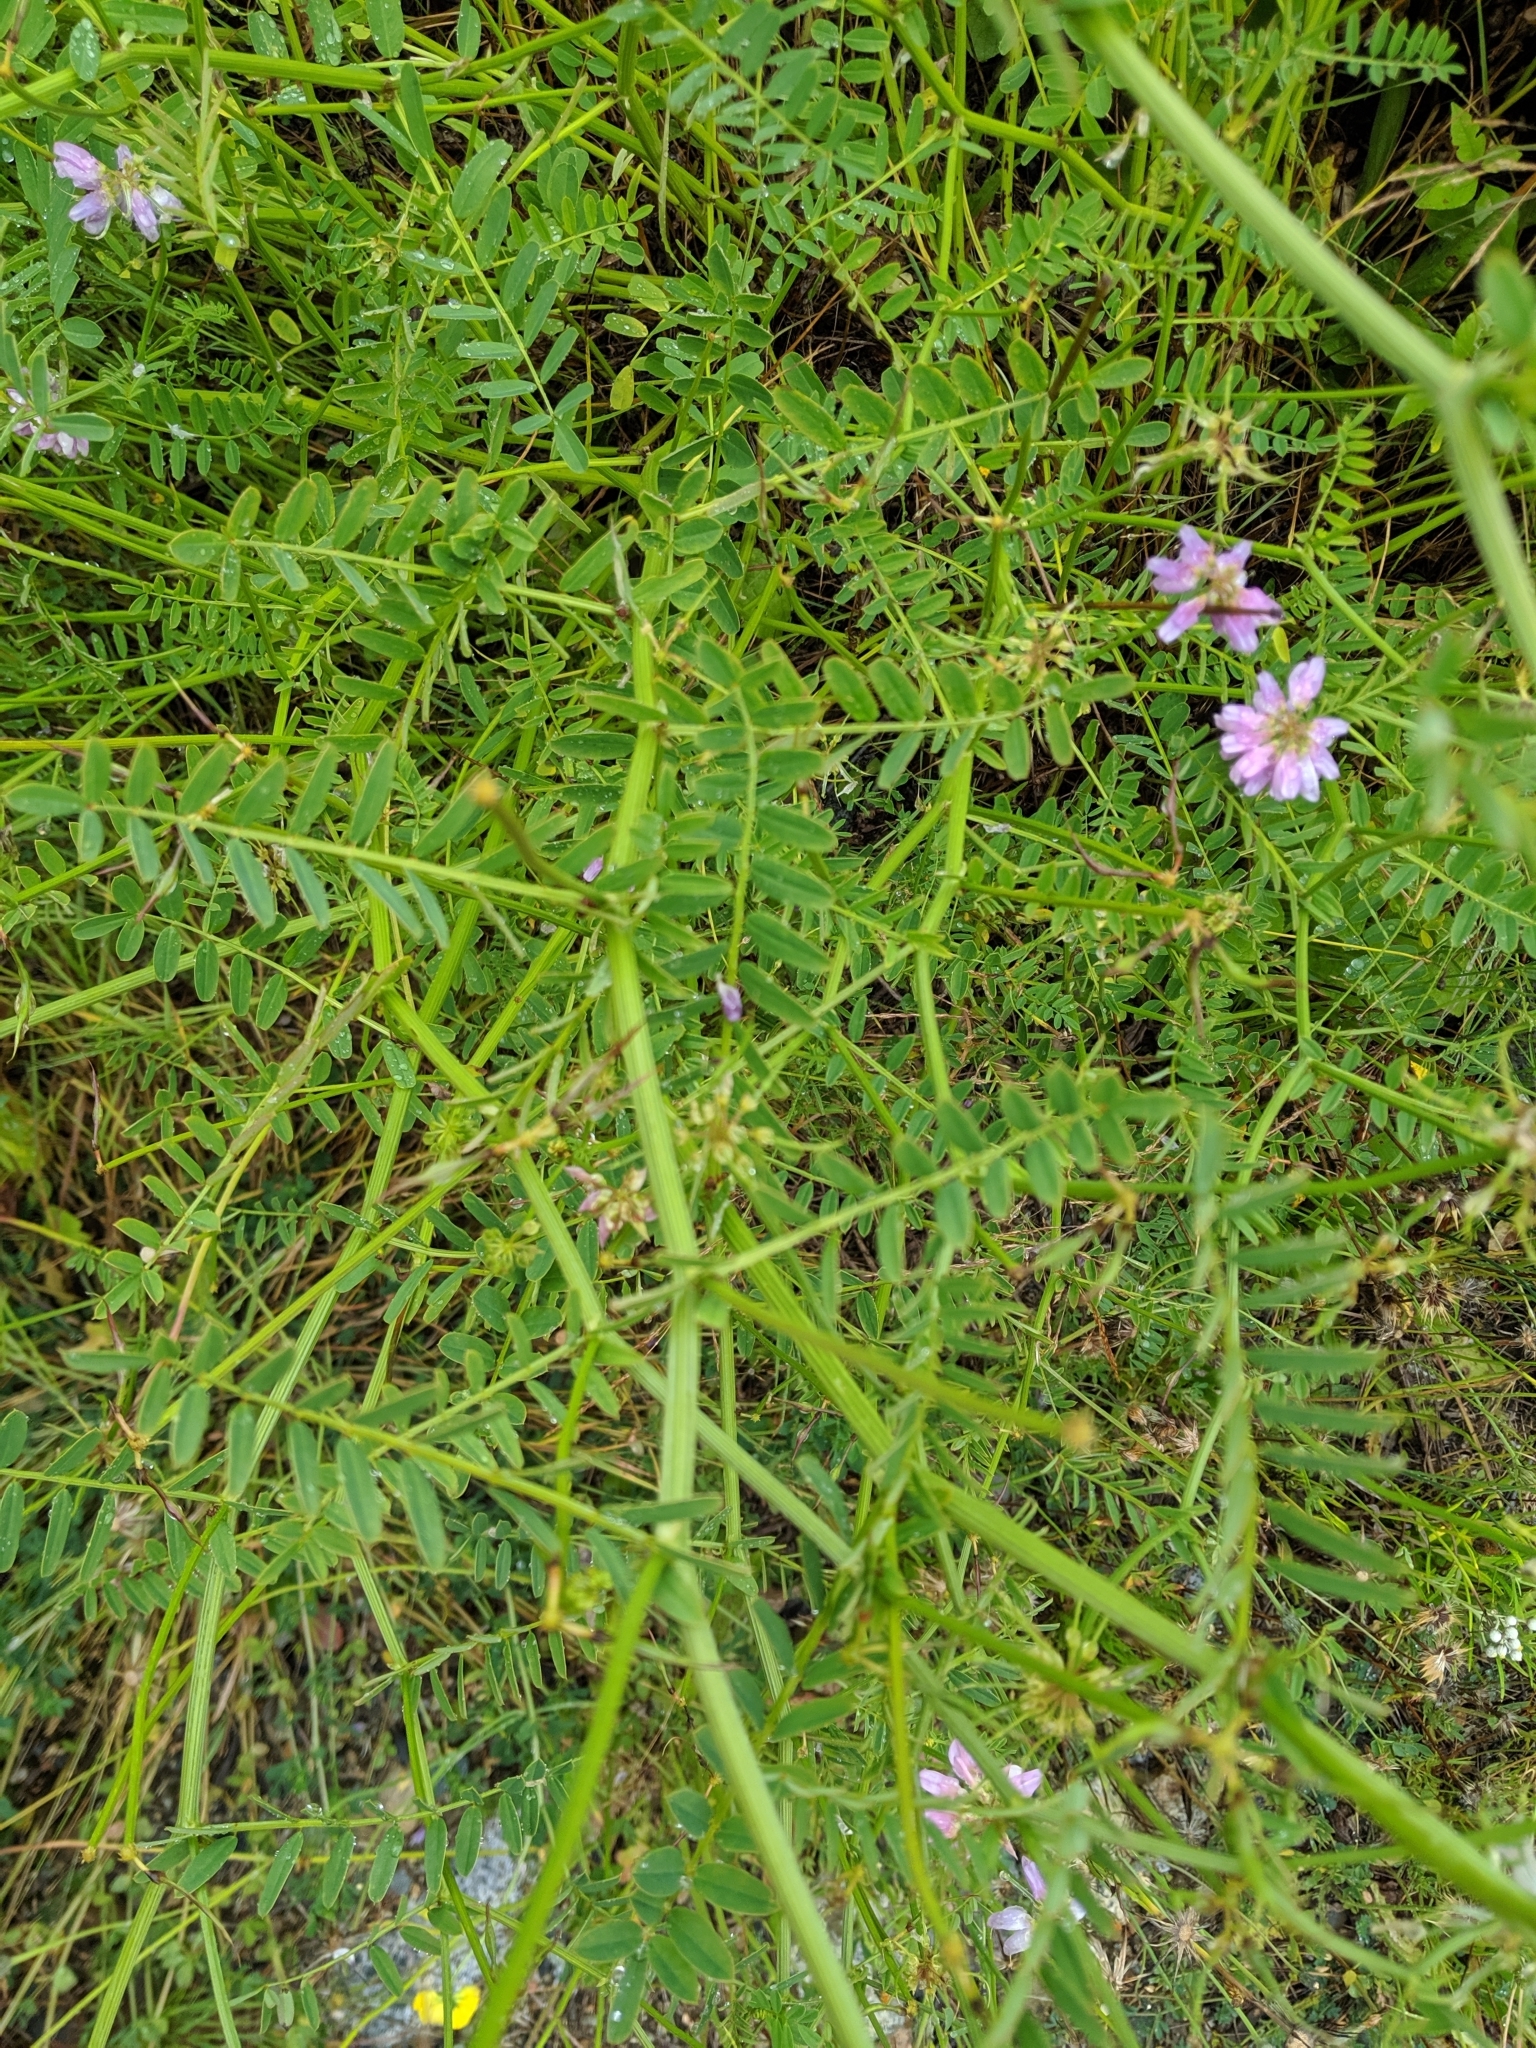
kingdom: Plantae
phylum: Tracheophyta
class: Magnoliopsida
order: Fabales
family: Fabaceae
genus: Coronilla
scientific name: Coronilla varia
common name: Crownvetch
